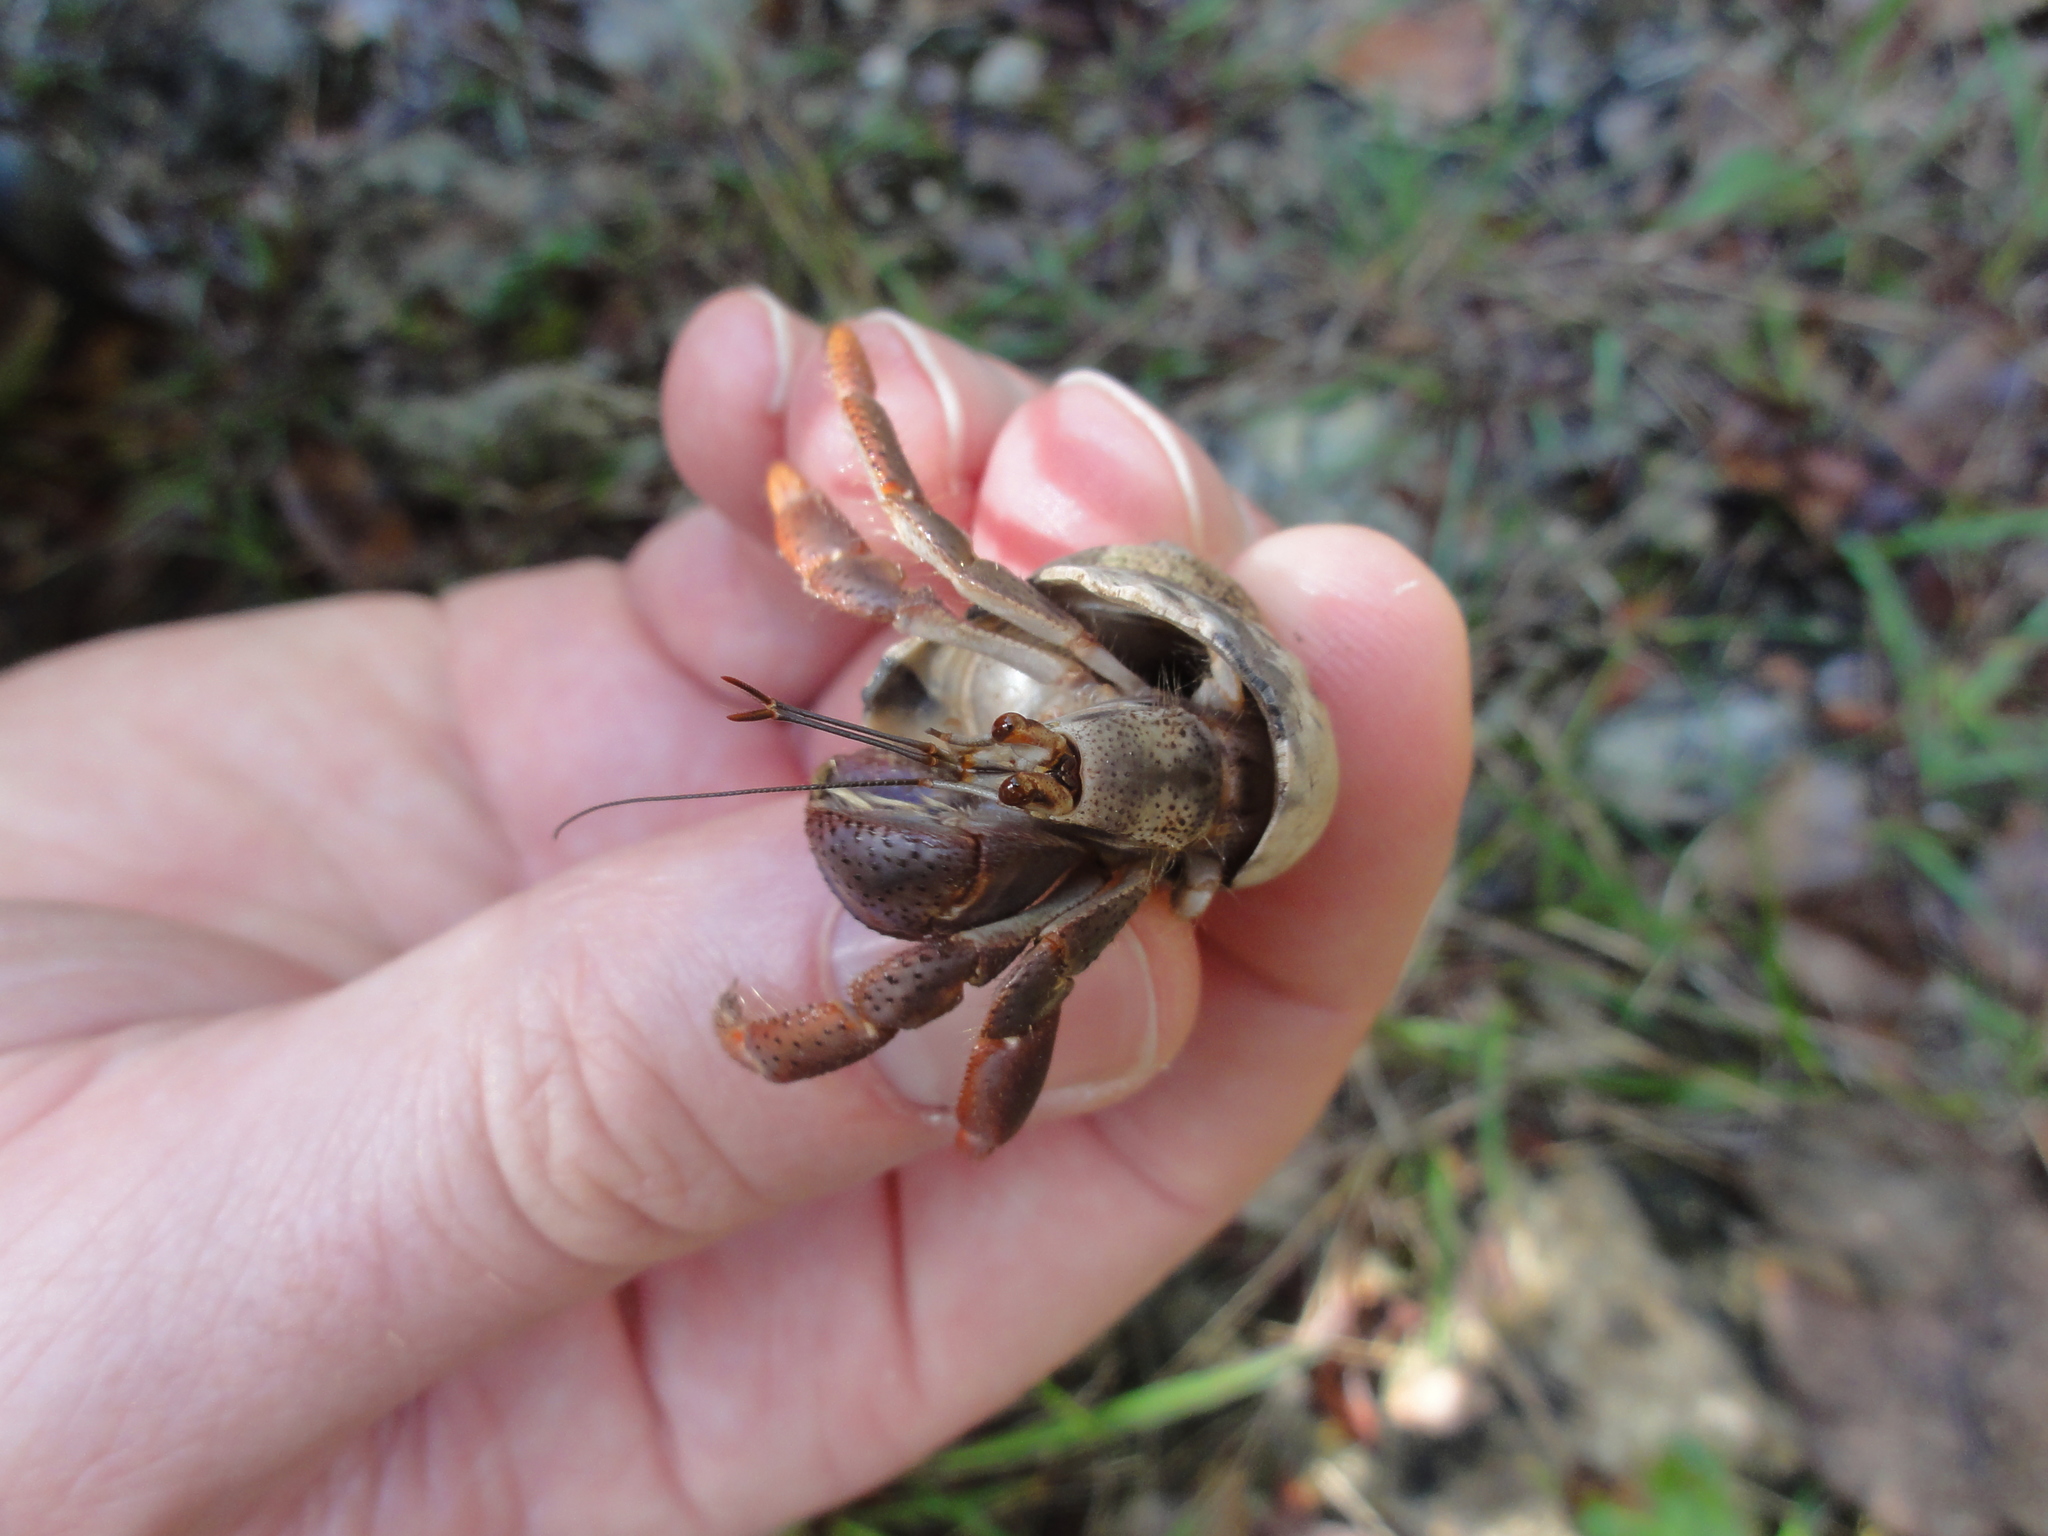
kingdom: Animalia
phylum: Arthropoda
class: Malacostraca
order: Decapoda
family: Coenobitidae
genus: Coenobita
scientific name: Coenobita clypeatus
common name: Caribbean hermit crab
